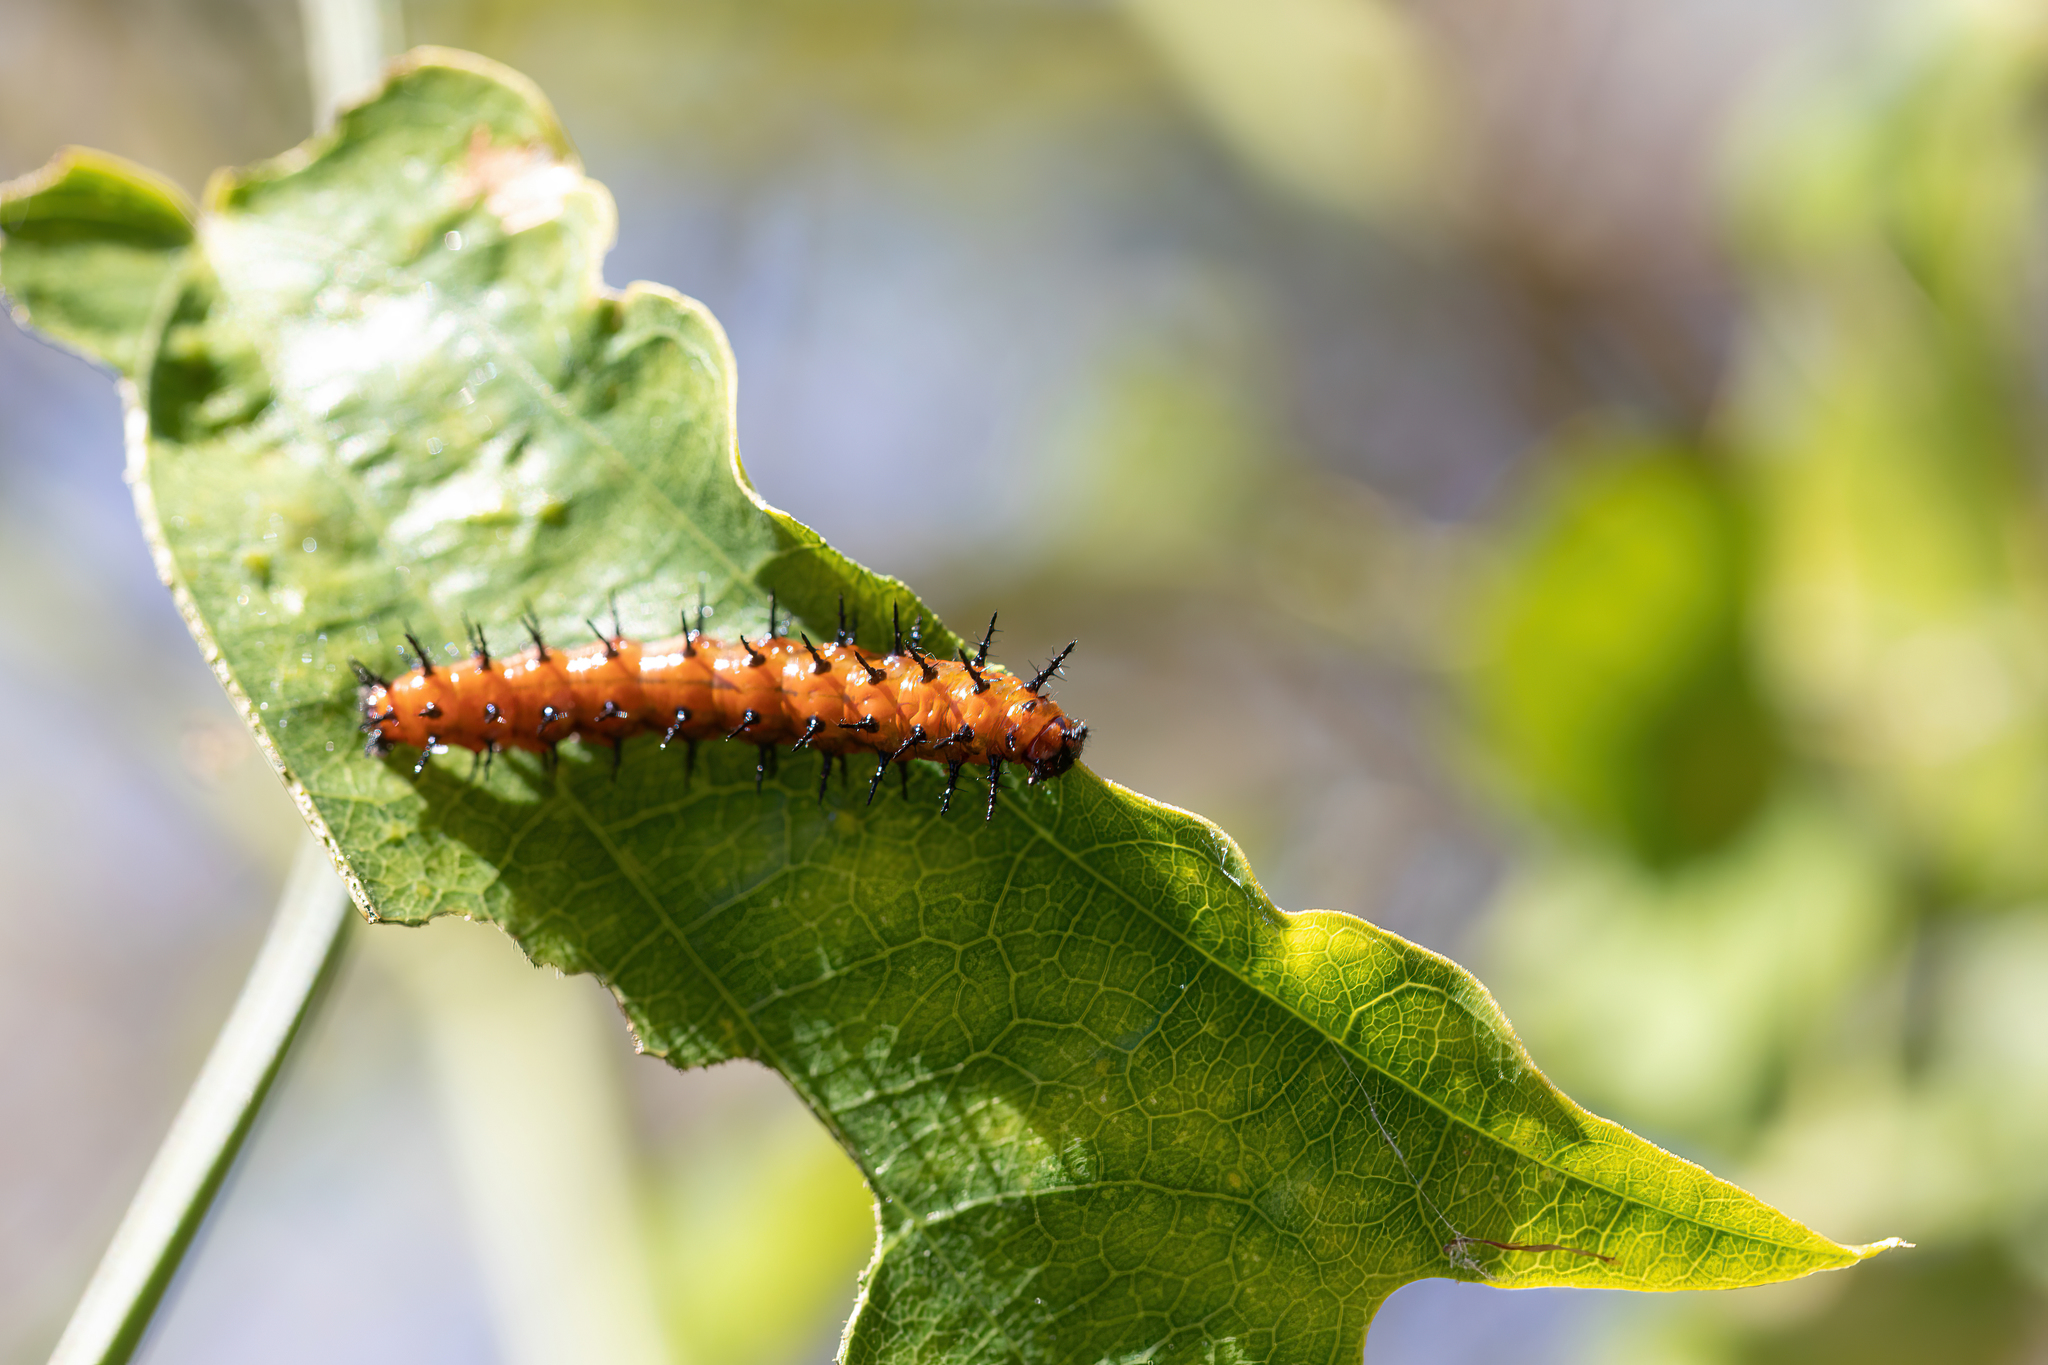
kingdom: Animalia
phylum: Arthropoda
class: Insecta
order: Lepidoptera
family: Nymphalidae
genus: Dione
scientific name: Dione vanillae
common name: Gulf fritillary
